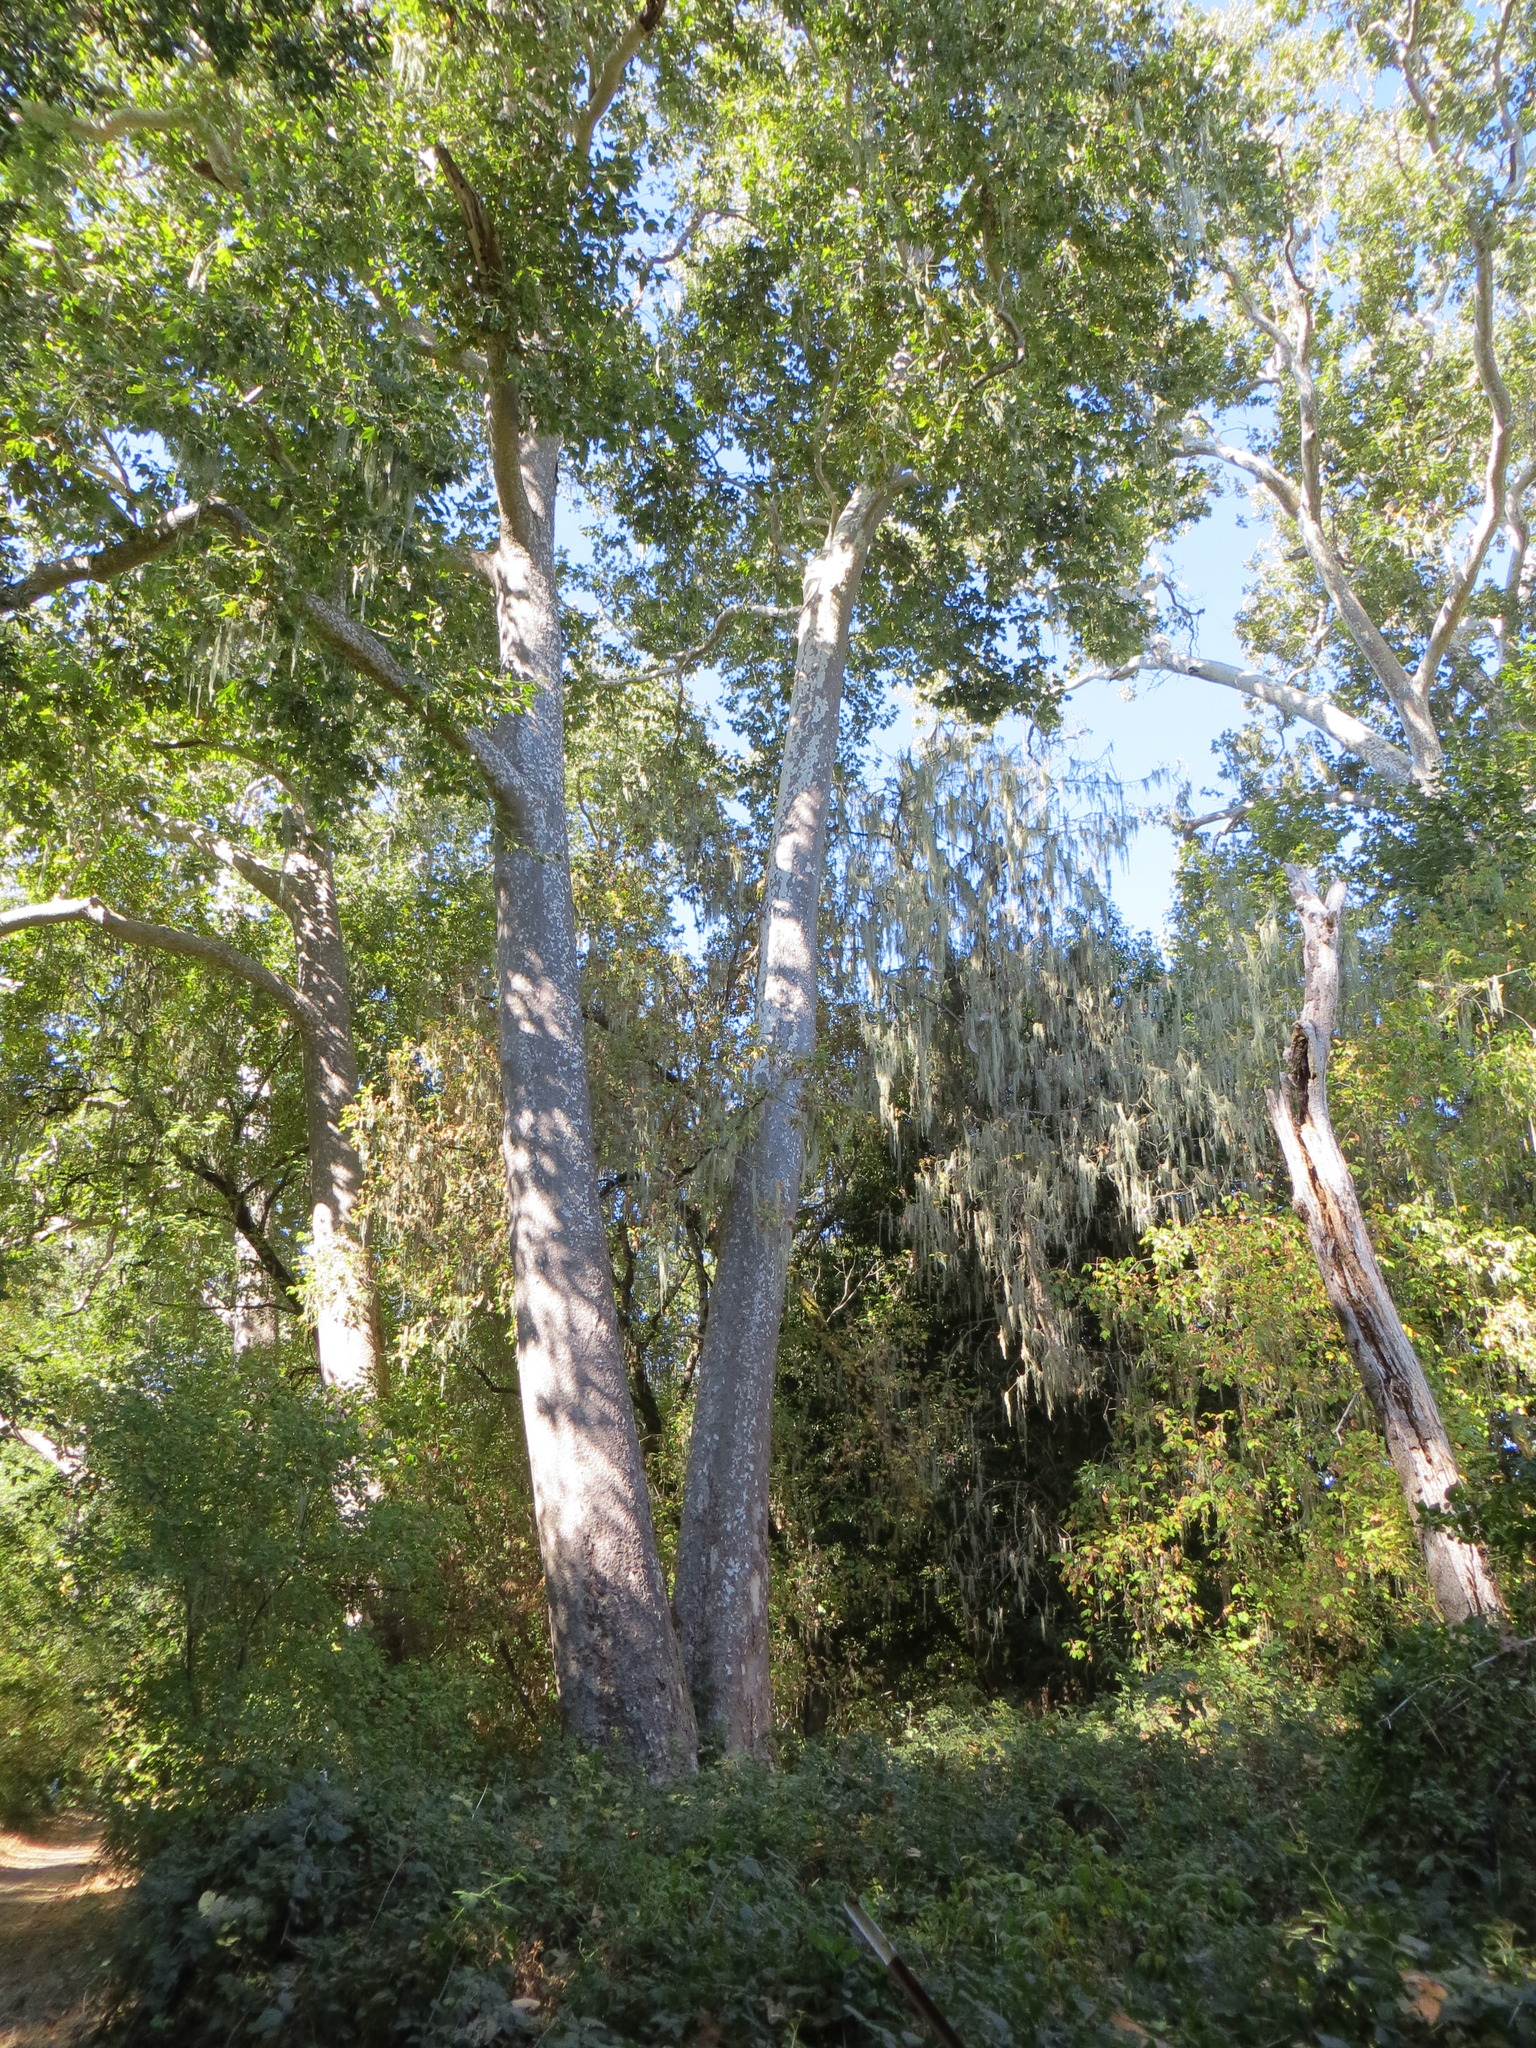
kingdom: Plantae
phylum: Tracheophyta
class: Magnoliopsida
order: Proteales
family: Platanaceae
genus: Platanus
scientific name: Platanus racemosa
